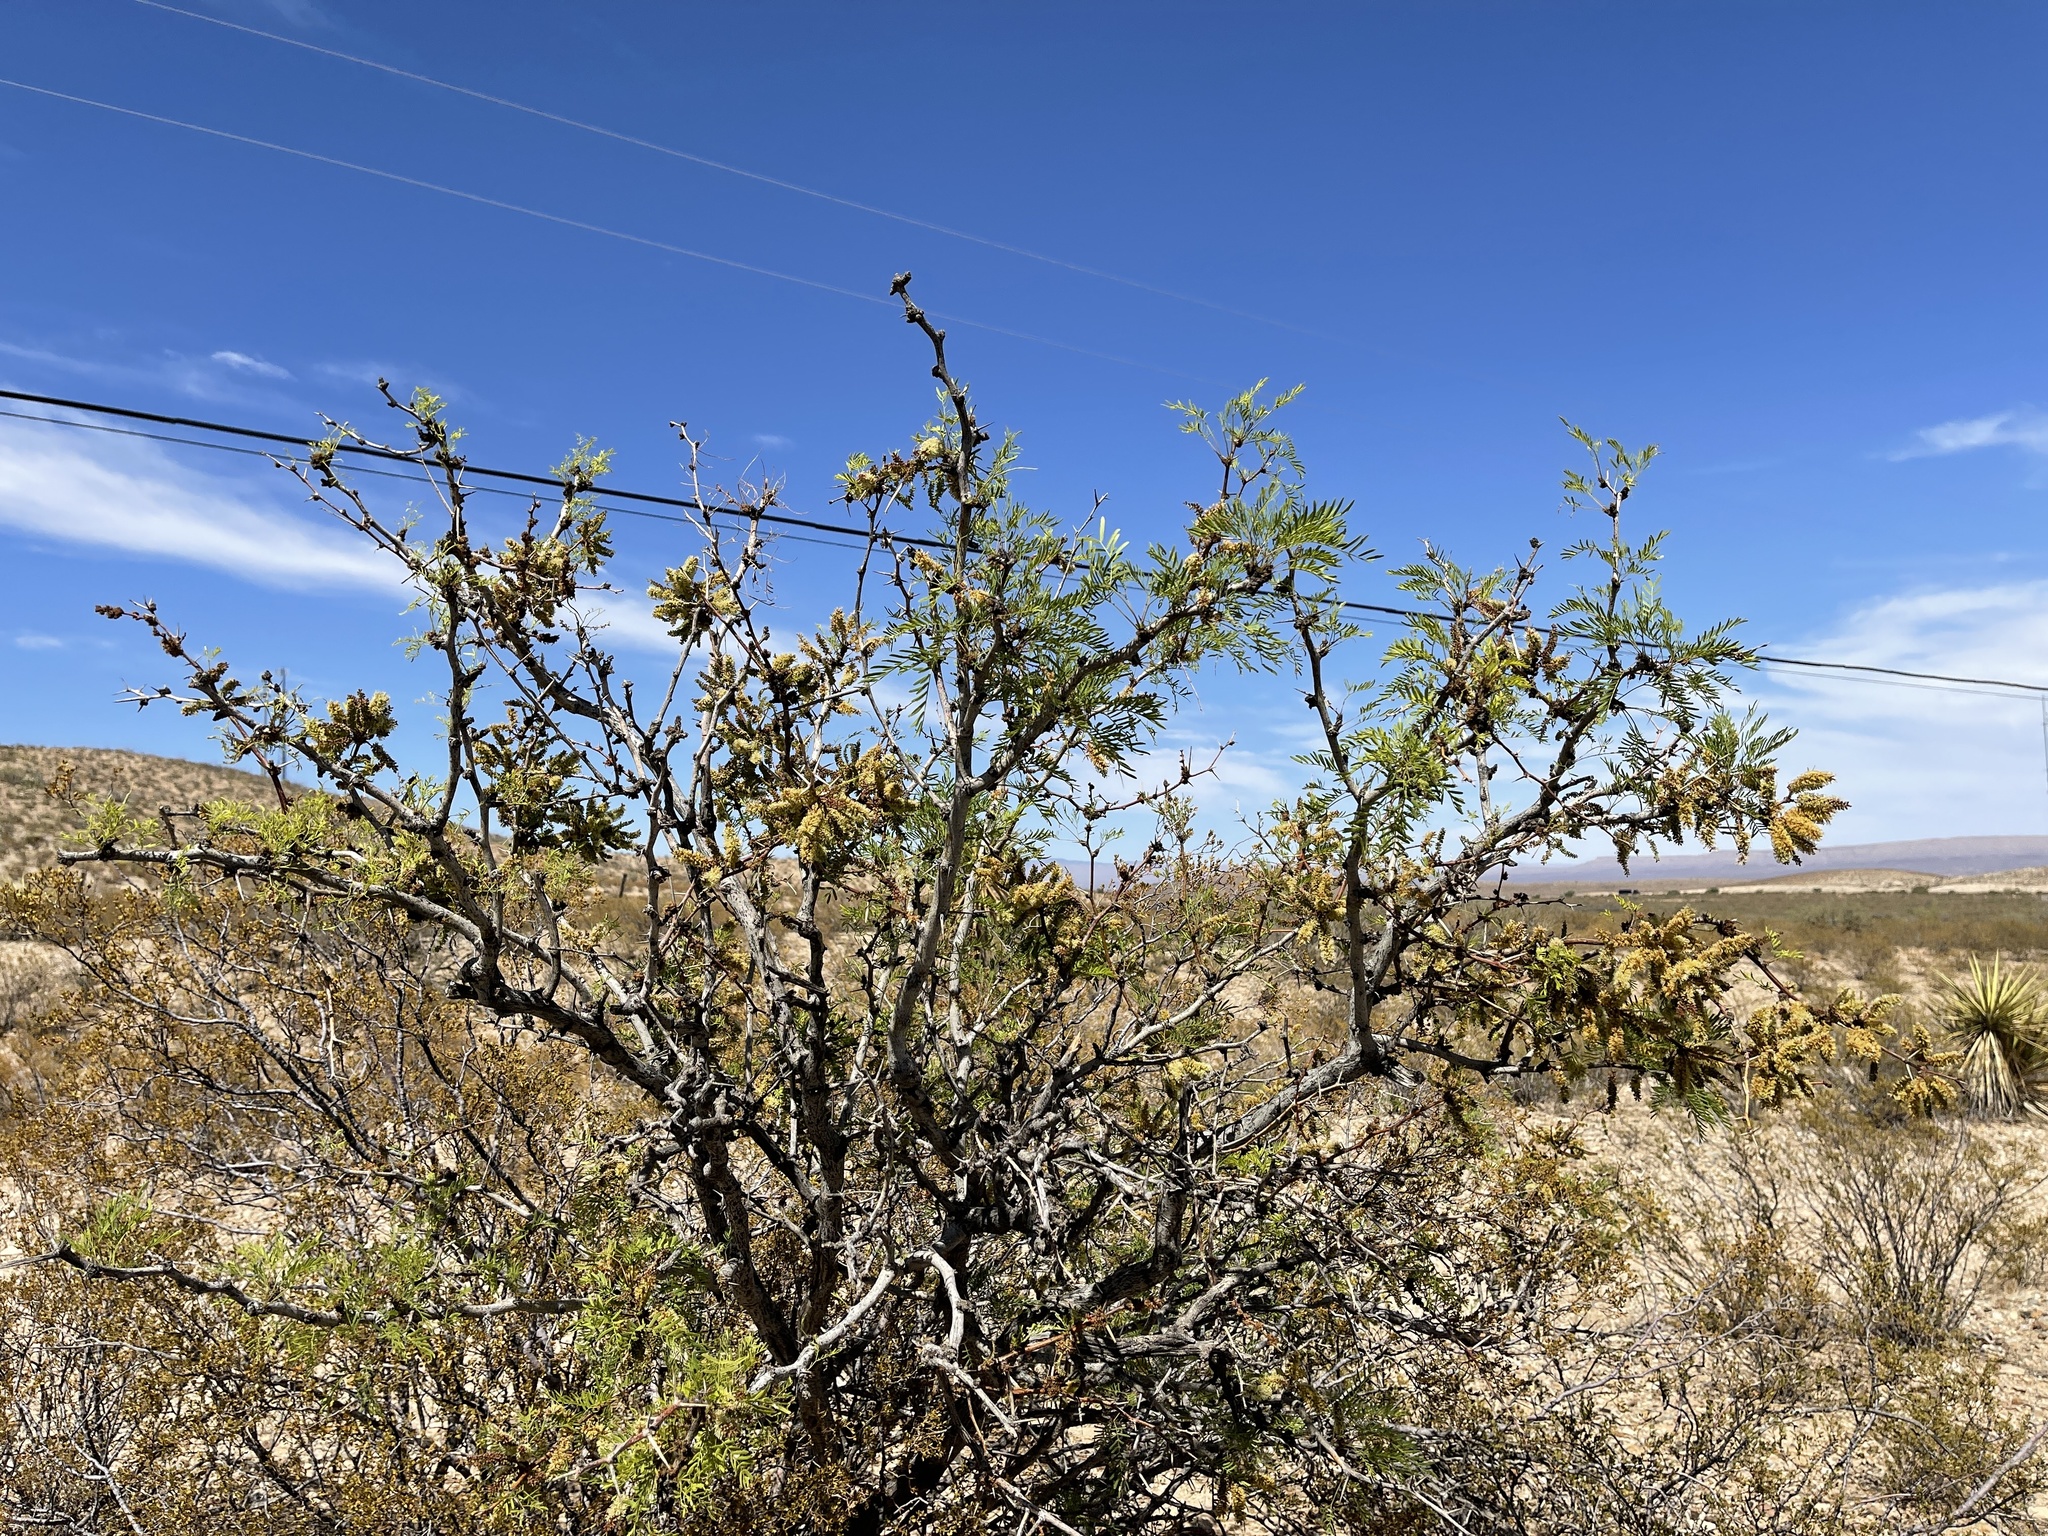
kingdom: Plantae
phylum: Tracheophyta
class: Magnoliopsida
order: Fabales
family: Fabaceae
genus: Prosopis
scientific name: Prosopis glandulosa
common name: Honey mesquite
